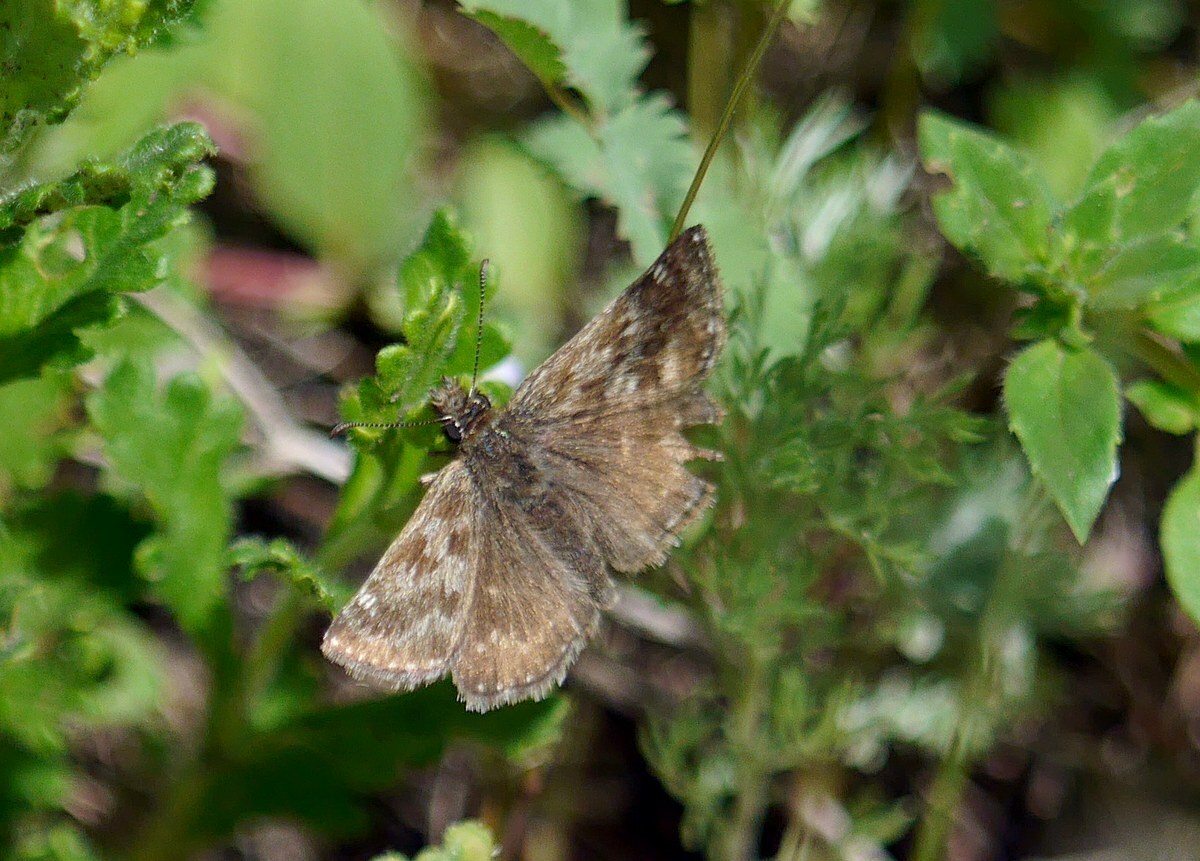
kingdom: Animalia
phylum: Arthropoda
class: Insecta
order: Lepidoptera
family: Hesperiidae
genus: Erynnis
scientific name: Erynnis tages
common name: Dingy skipper
